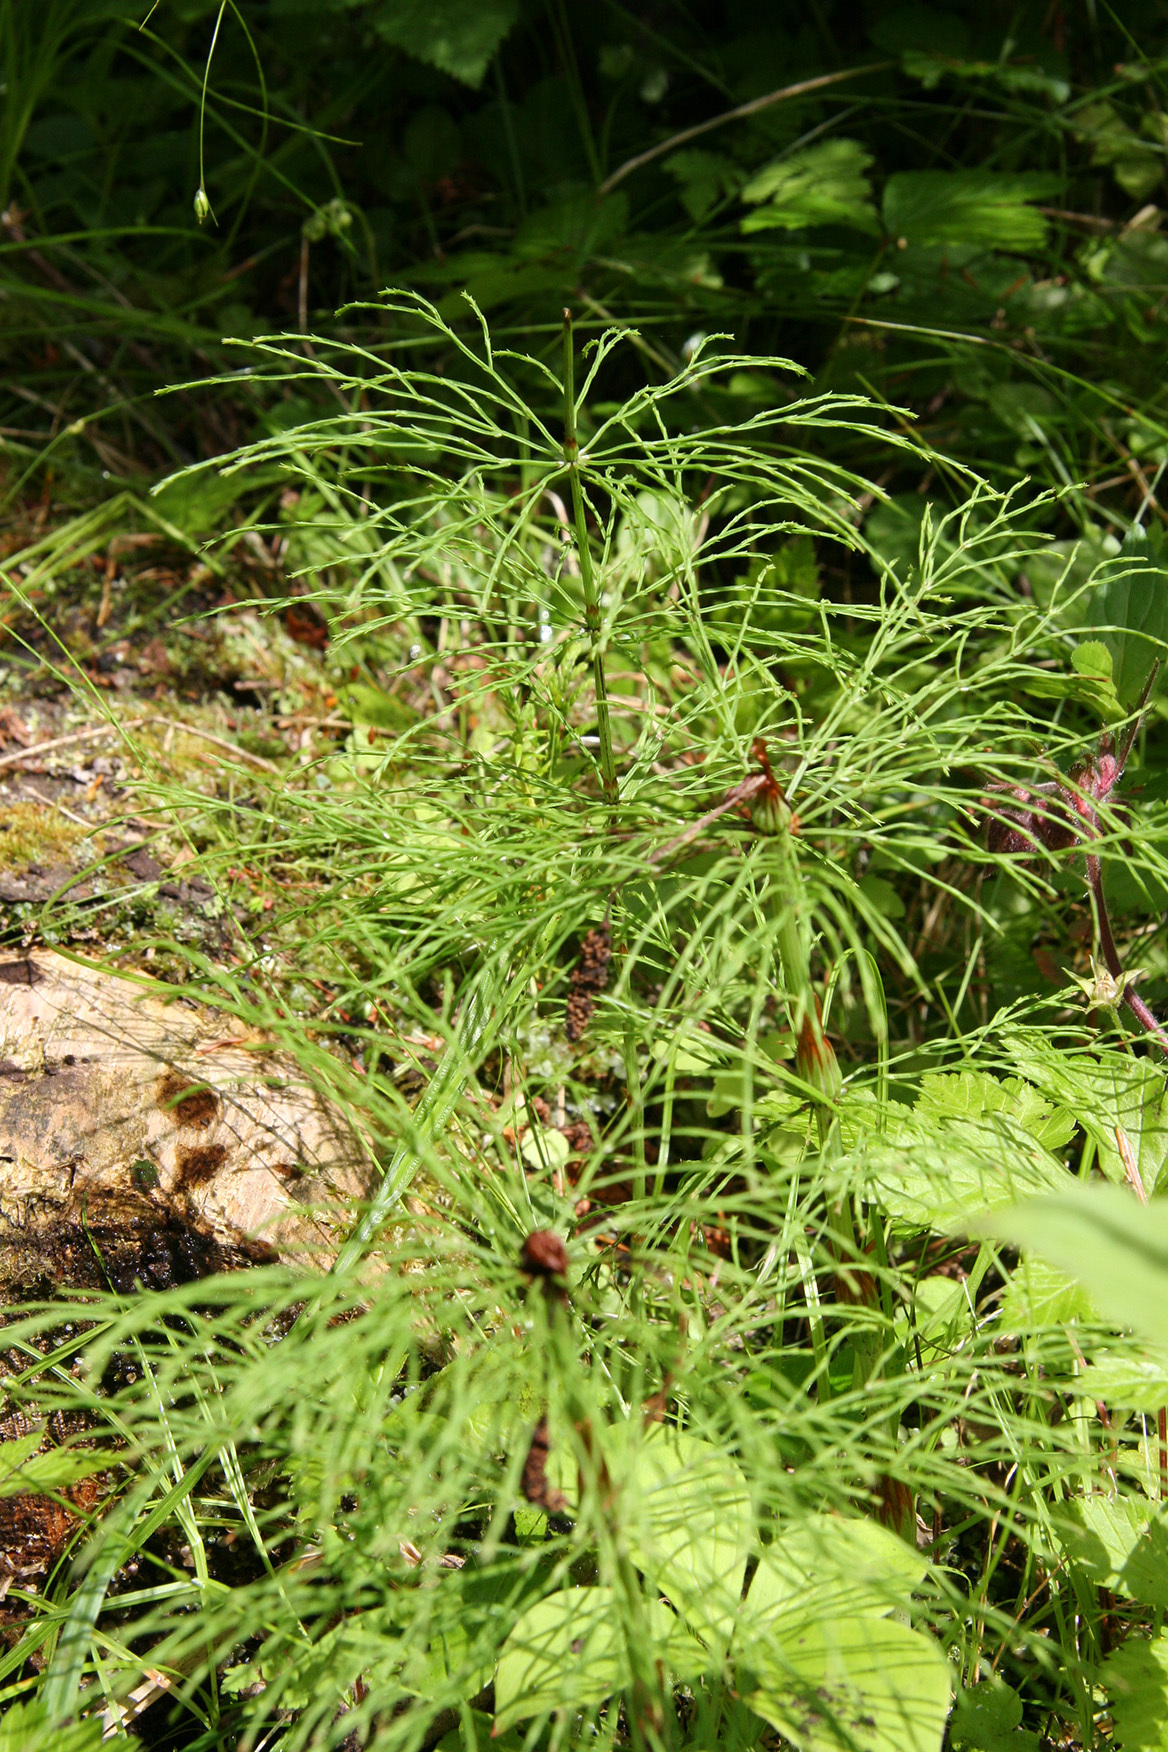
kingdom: Plantae
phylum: Tracheophyta
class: Polypodiopsida
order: Equisetales
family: Equisetaceae
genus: Equisetum
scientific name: Equisetum sylvaticum
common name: Wood horsetail
